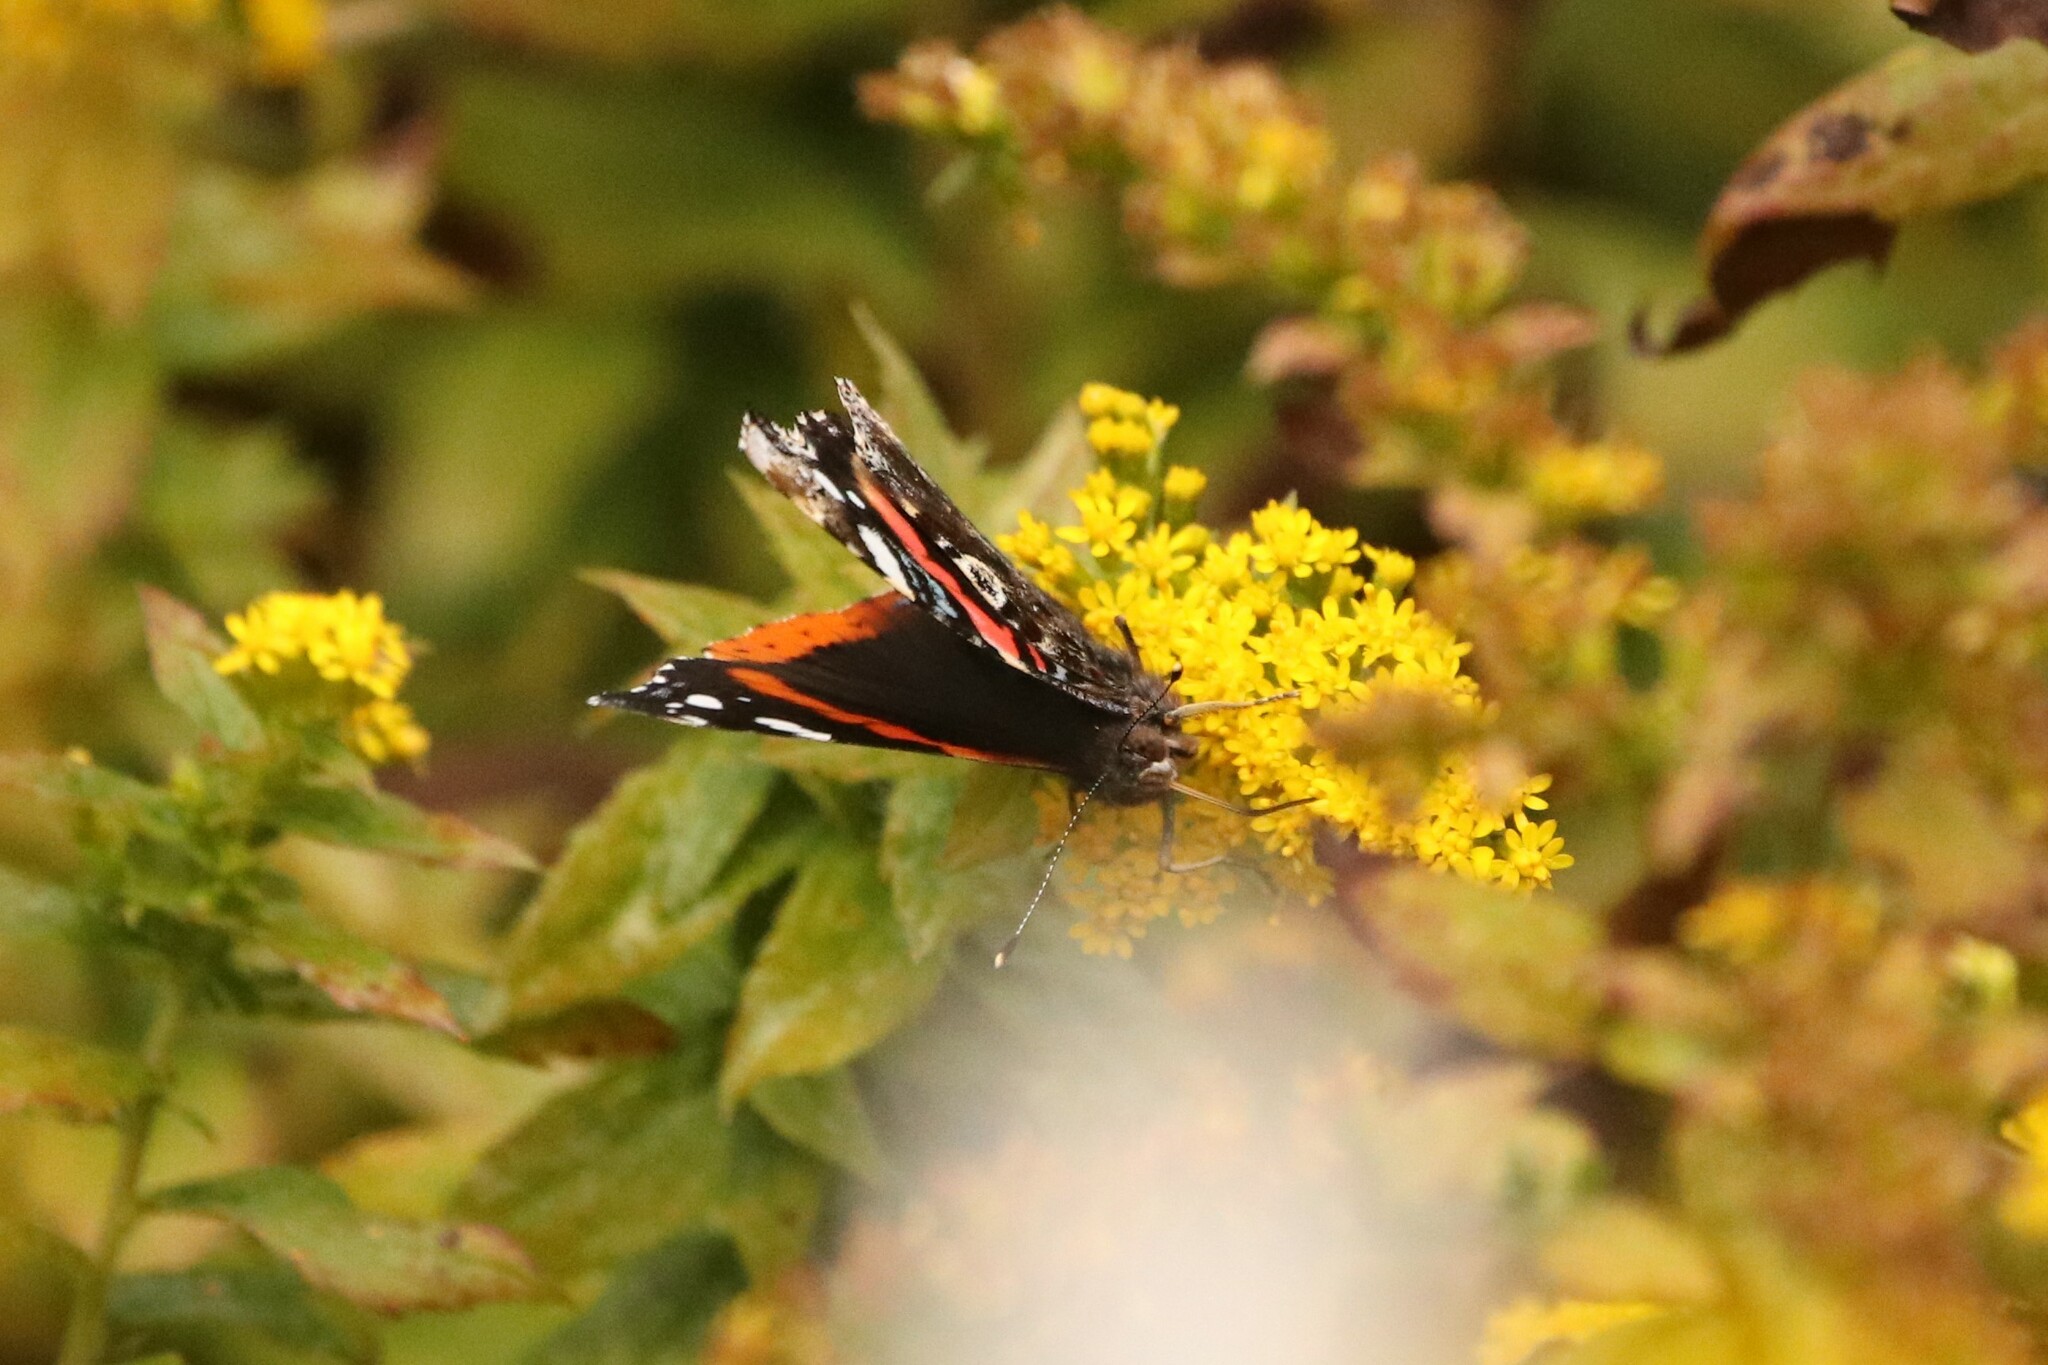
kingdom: Animalia
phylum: Arthropoda
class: Insecta
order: Lepidoptera
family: Nymphalidae
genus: Vanessa
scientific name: Vanessa atalanta
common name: Red admiral
